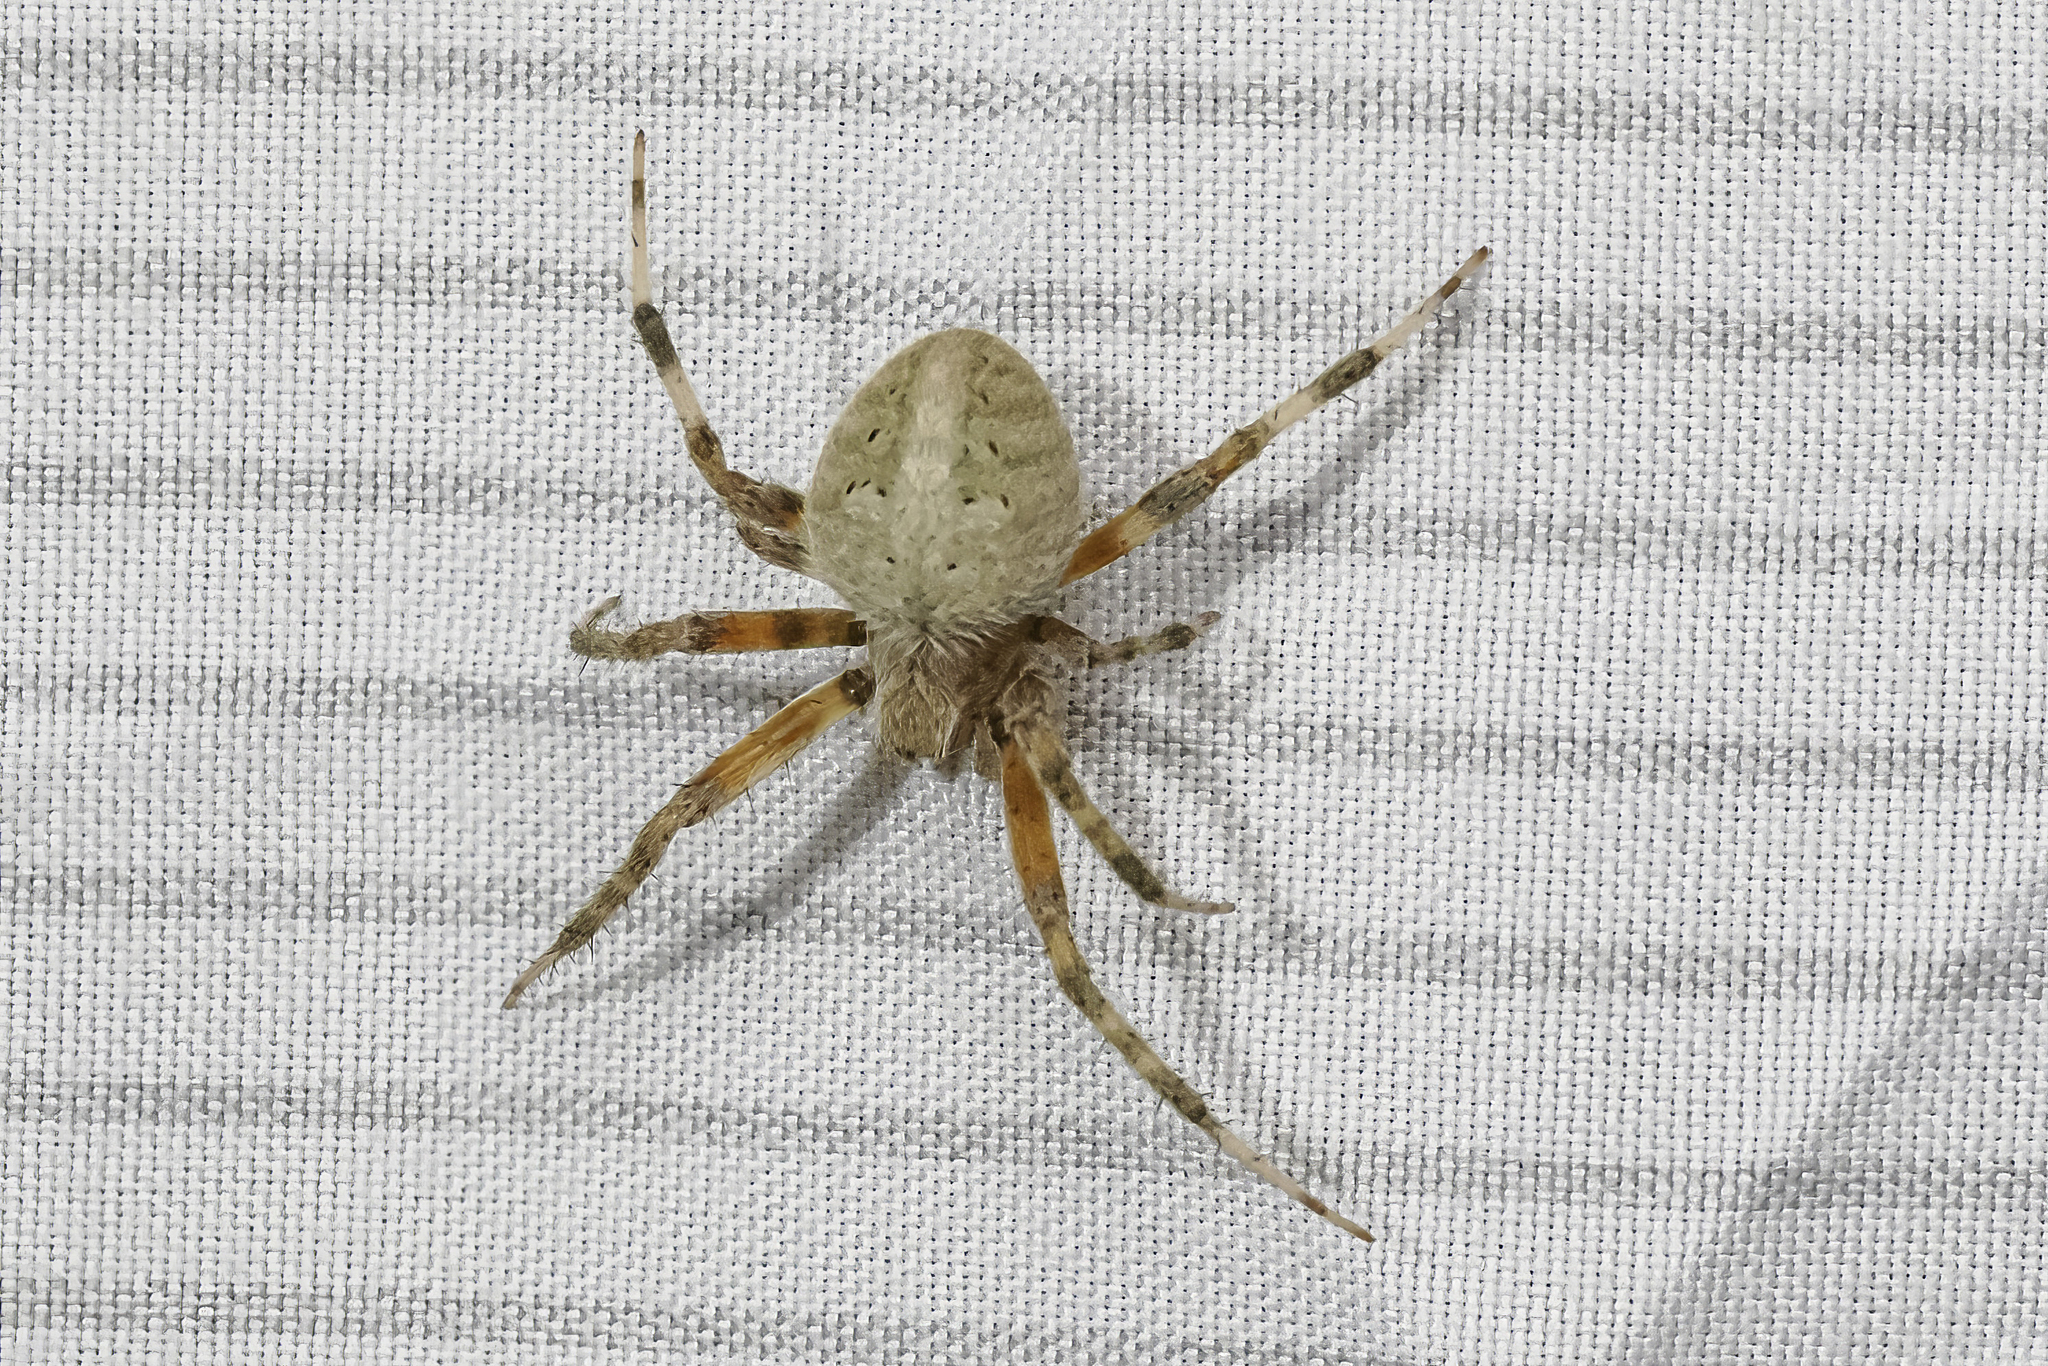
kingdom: Animalia
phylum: Arthropoda
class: Arachnida
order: Araneae
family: Araneidae
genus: Neoscona
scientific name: Neoscona crucifera
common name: Spotted orbweaver
